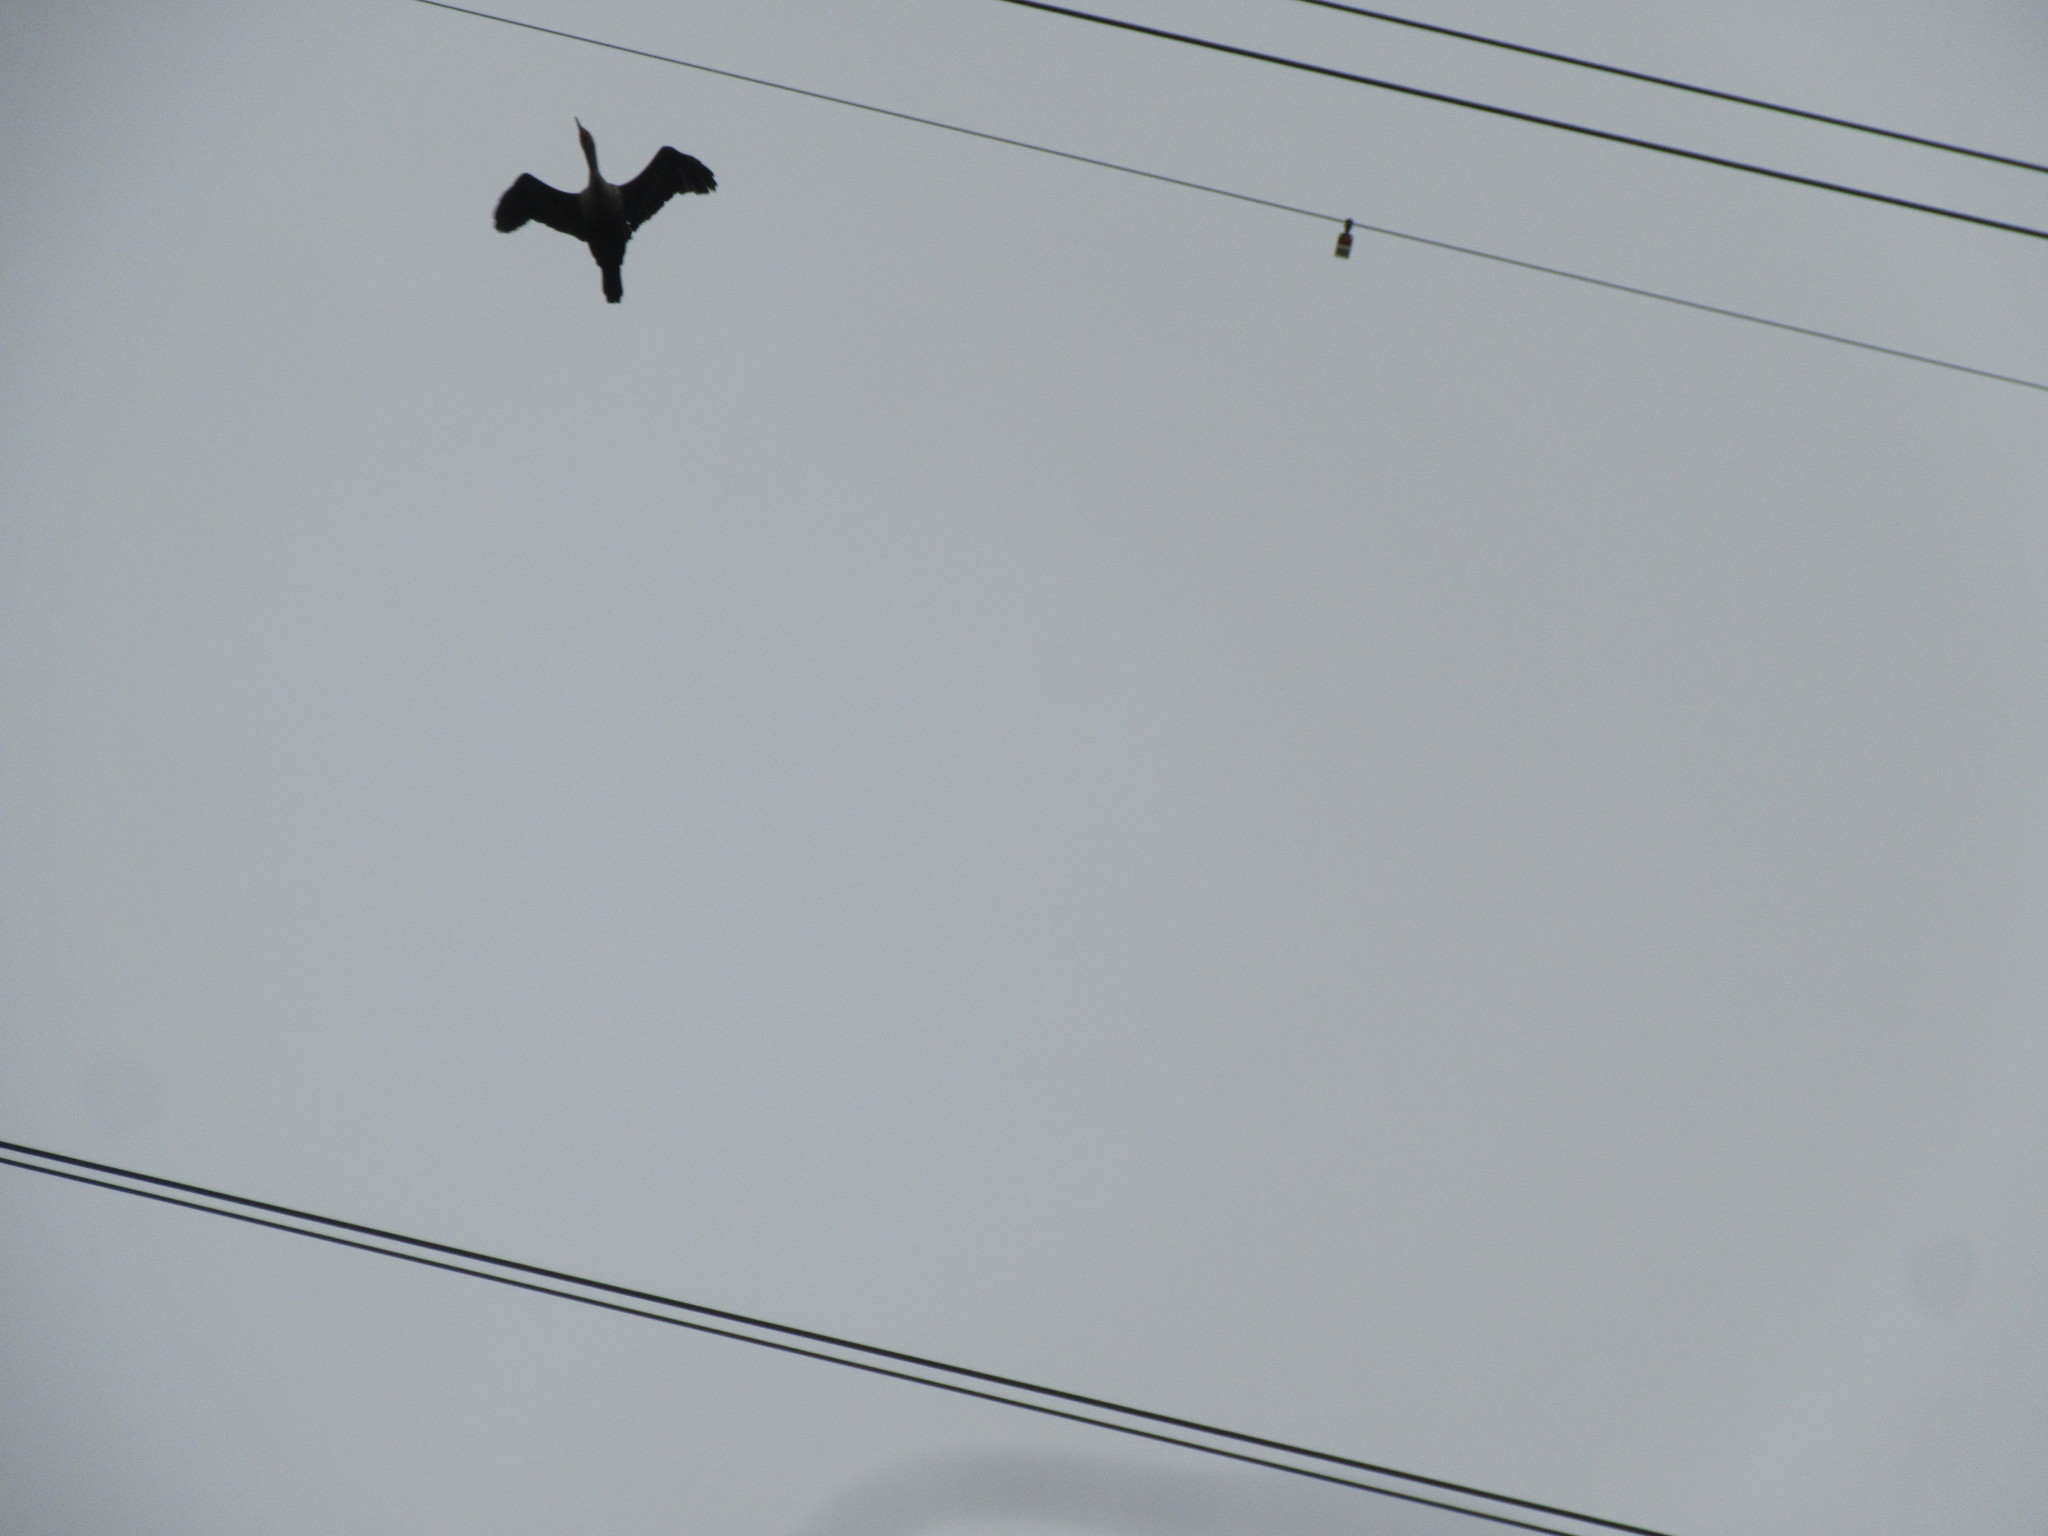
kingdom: Animalia
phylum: Chordata
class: Aves
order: Suliformes
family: Phalacrocoracidae
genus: Phalacrocorax
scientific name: Phalacrocorax auritus
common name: Double-crested cormorant
